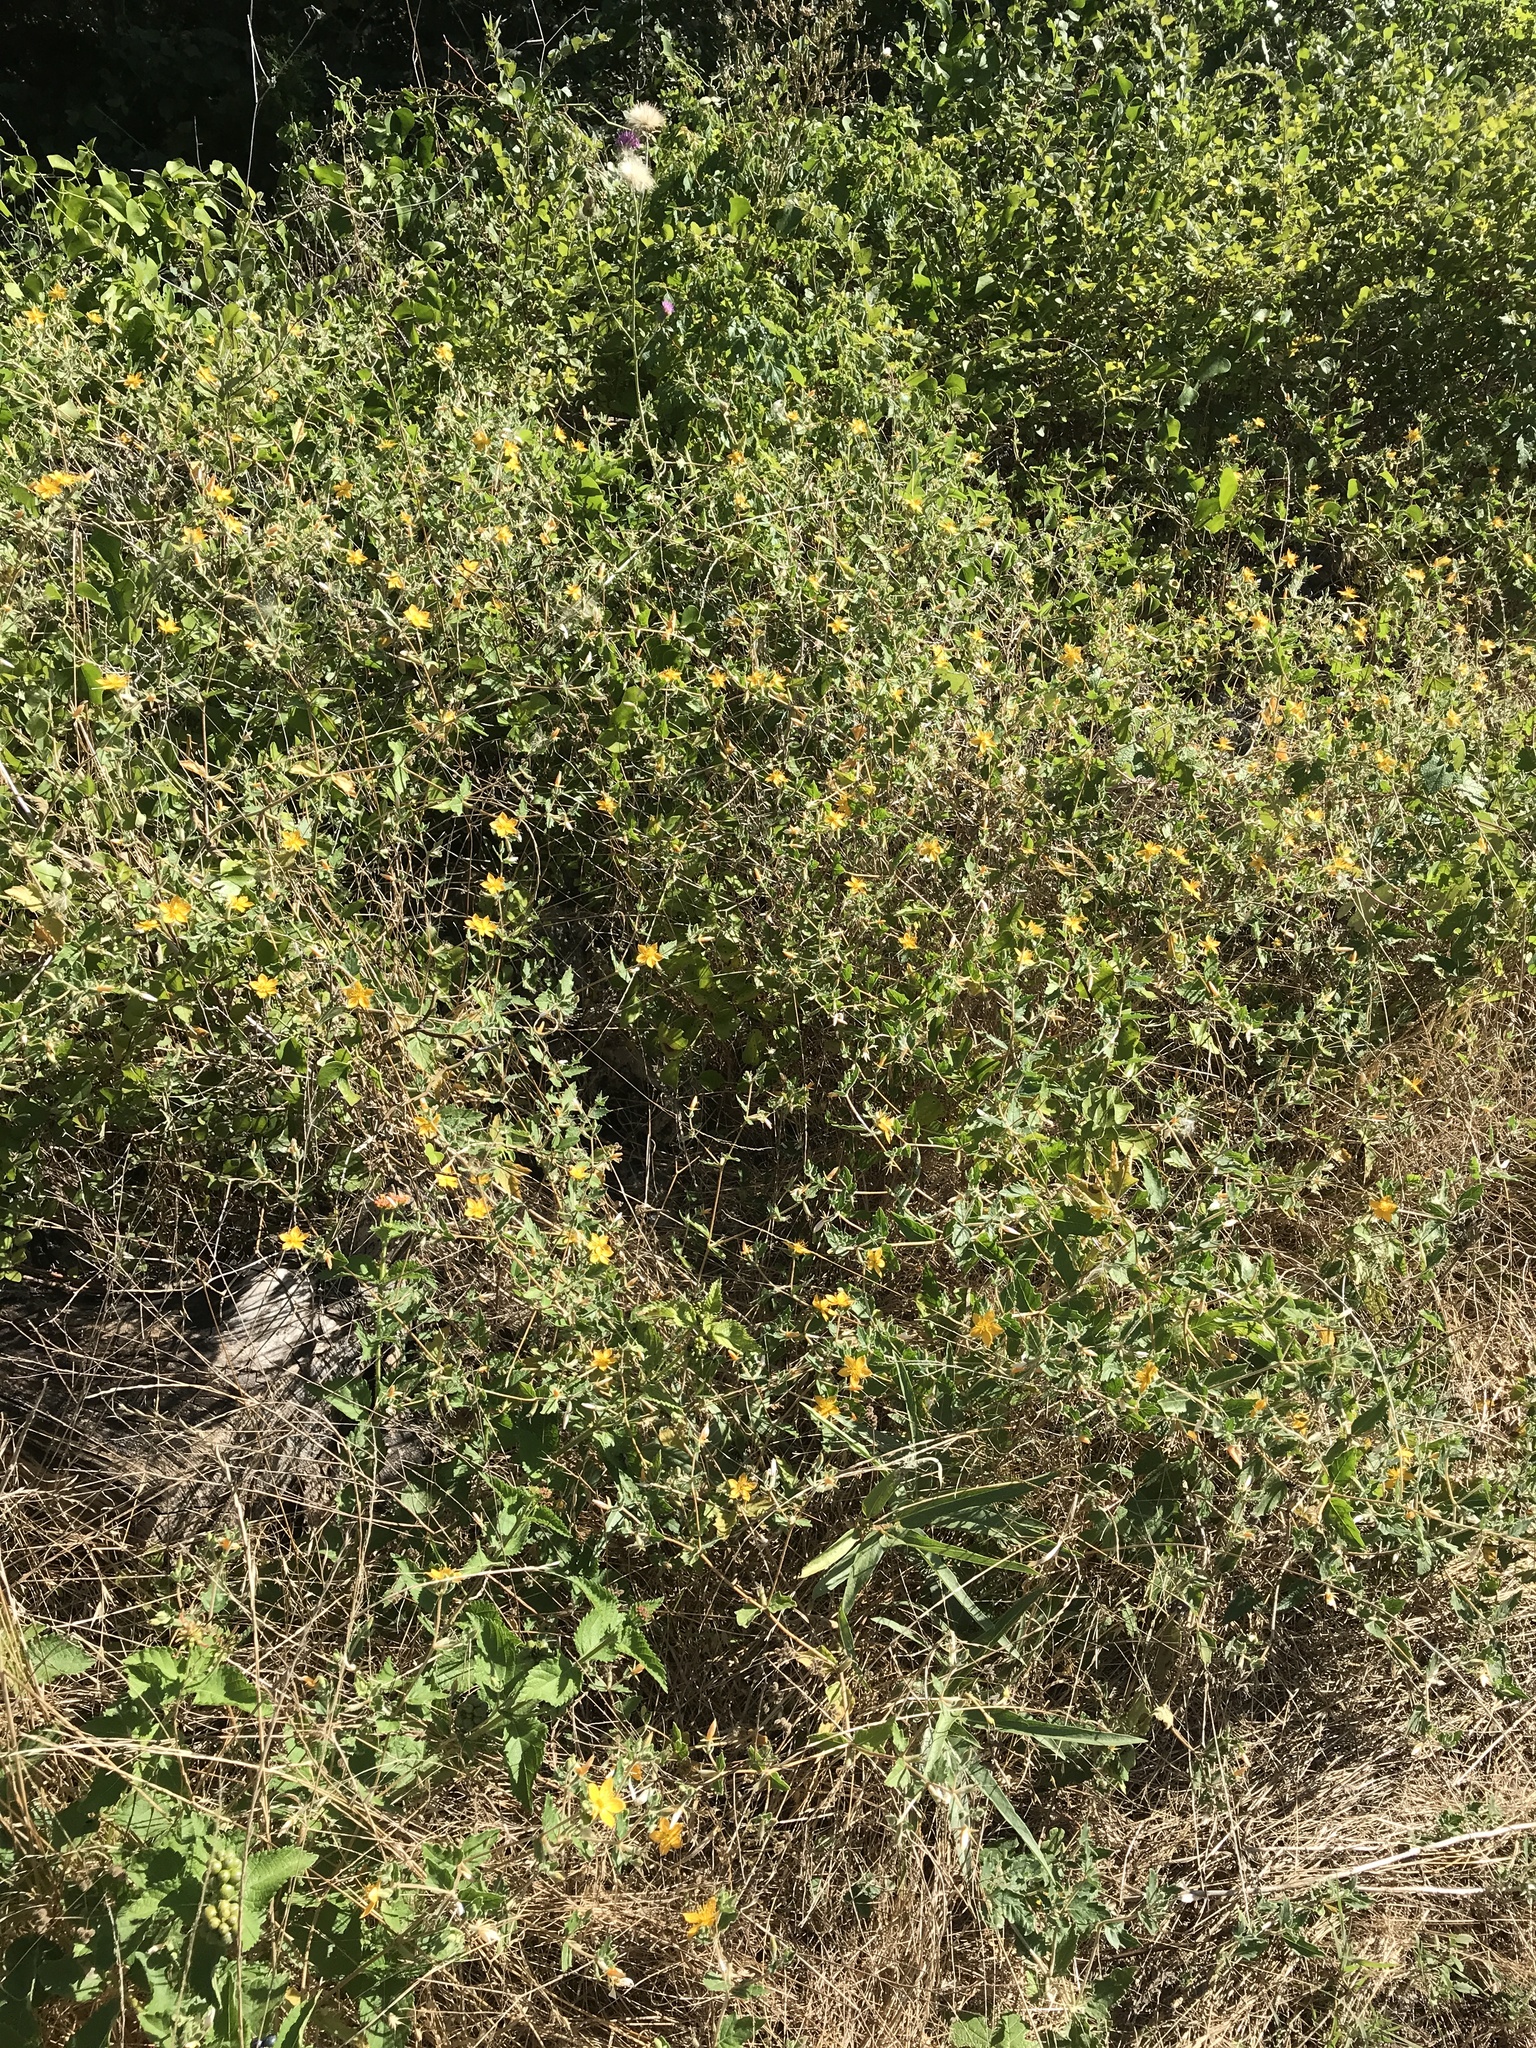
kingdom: Plantae
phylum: Tracheophyta
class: Magnoliopsida
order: Cornales
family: Loasaceae
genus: Mentzelia
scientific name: Mentzelia oligosperma
